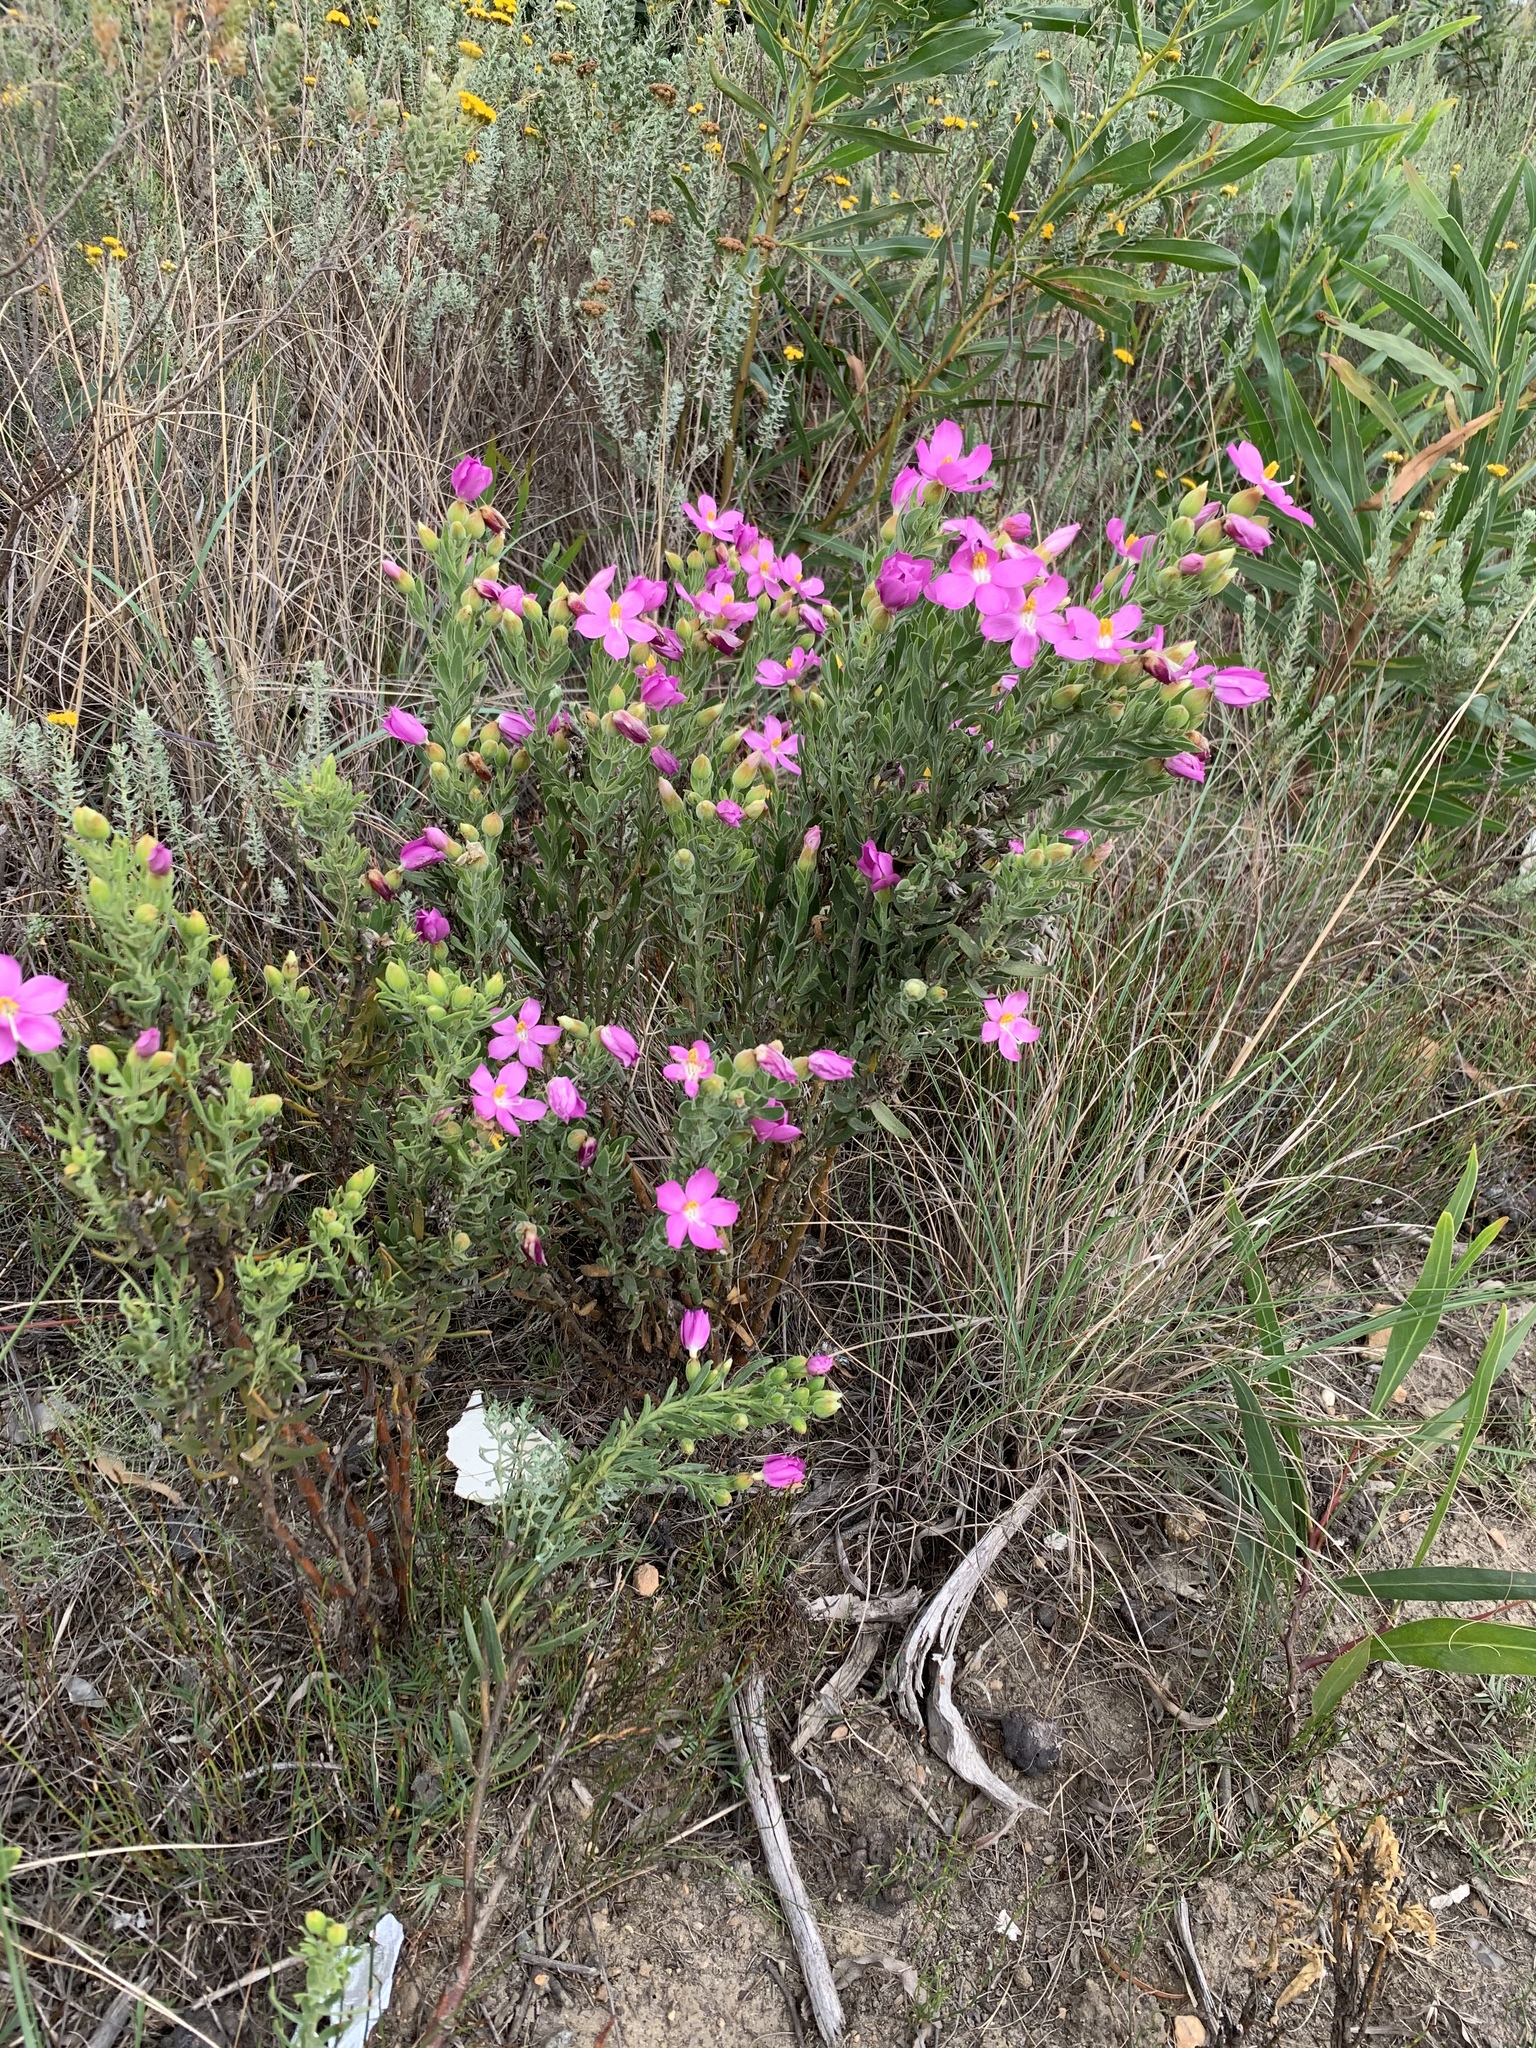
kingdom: Plantae
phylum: Tracheophyta
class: Magnoliopsida
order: Gentianales
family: Gentianaceae
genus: Orphium
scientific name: Orphium frutescens
